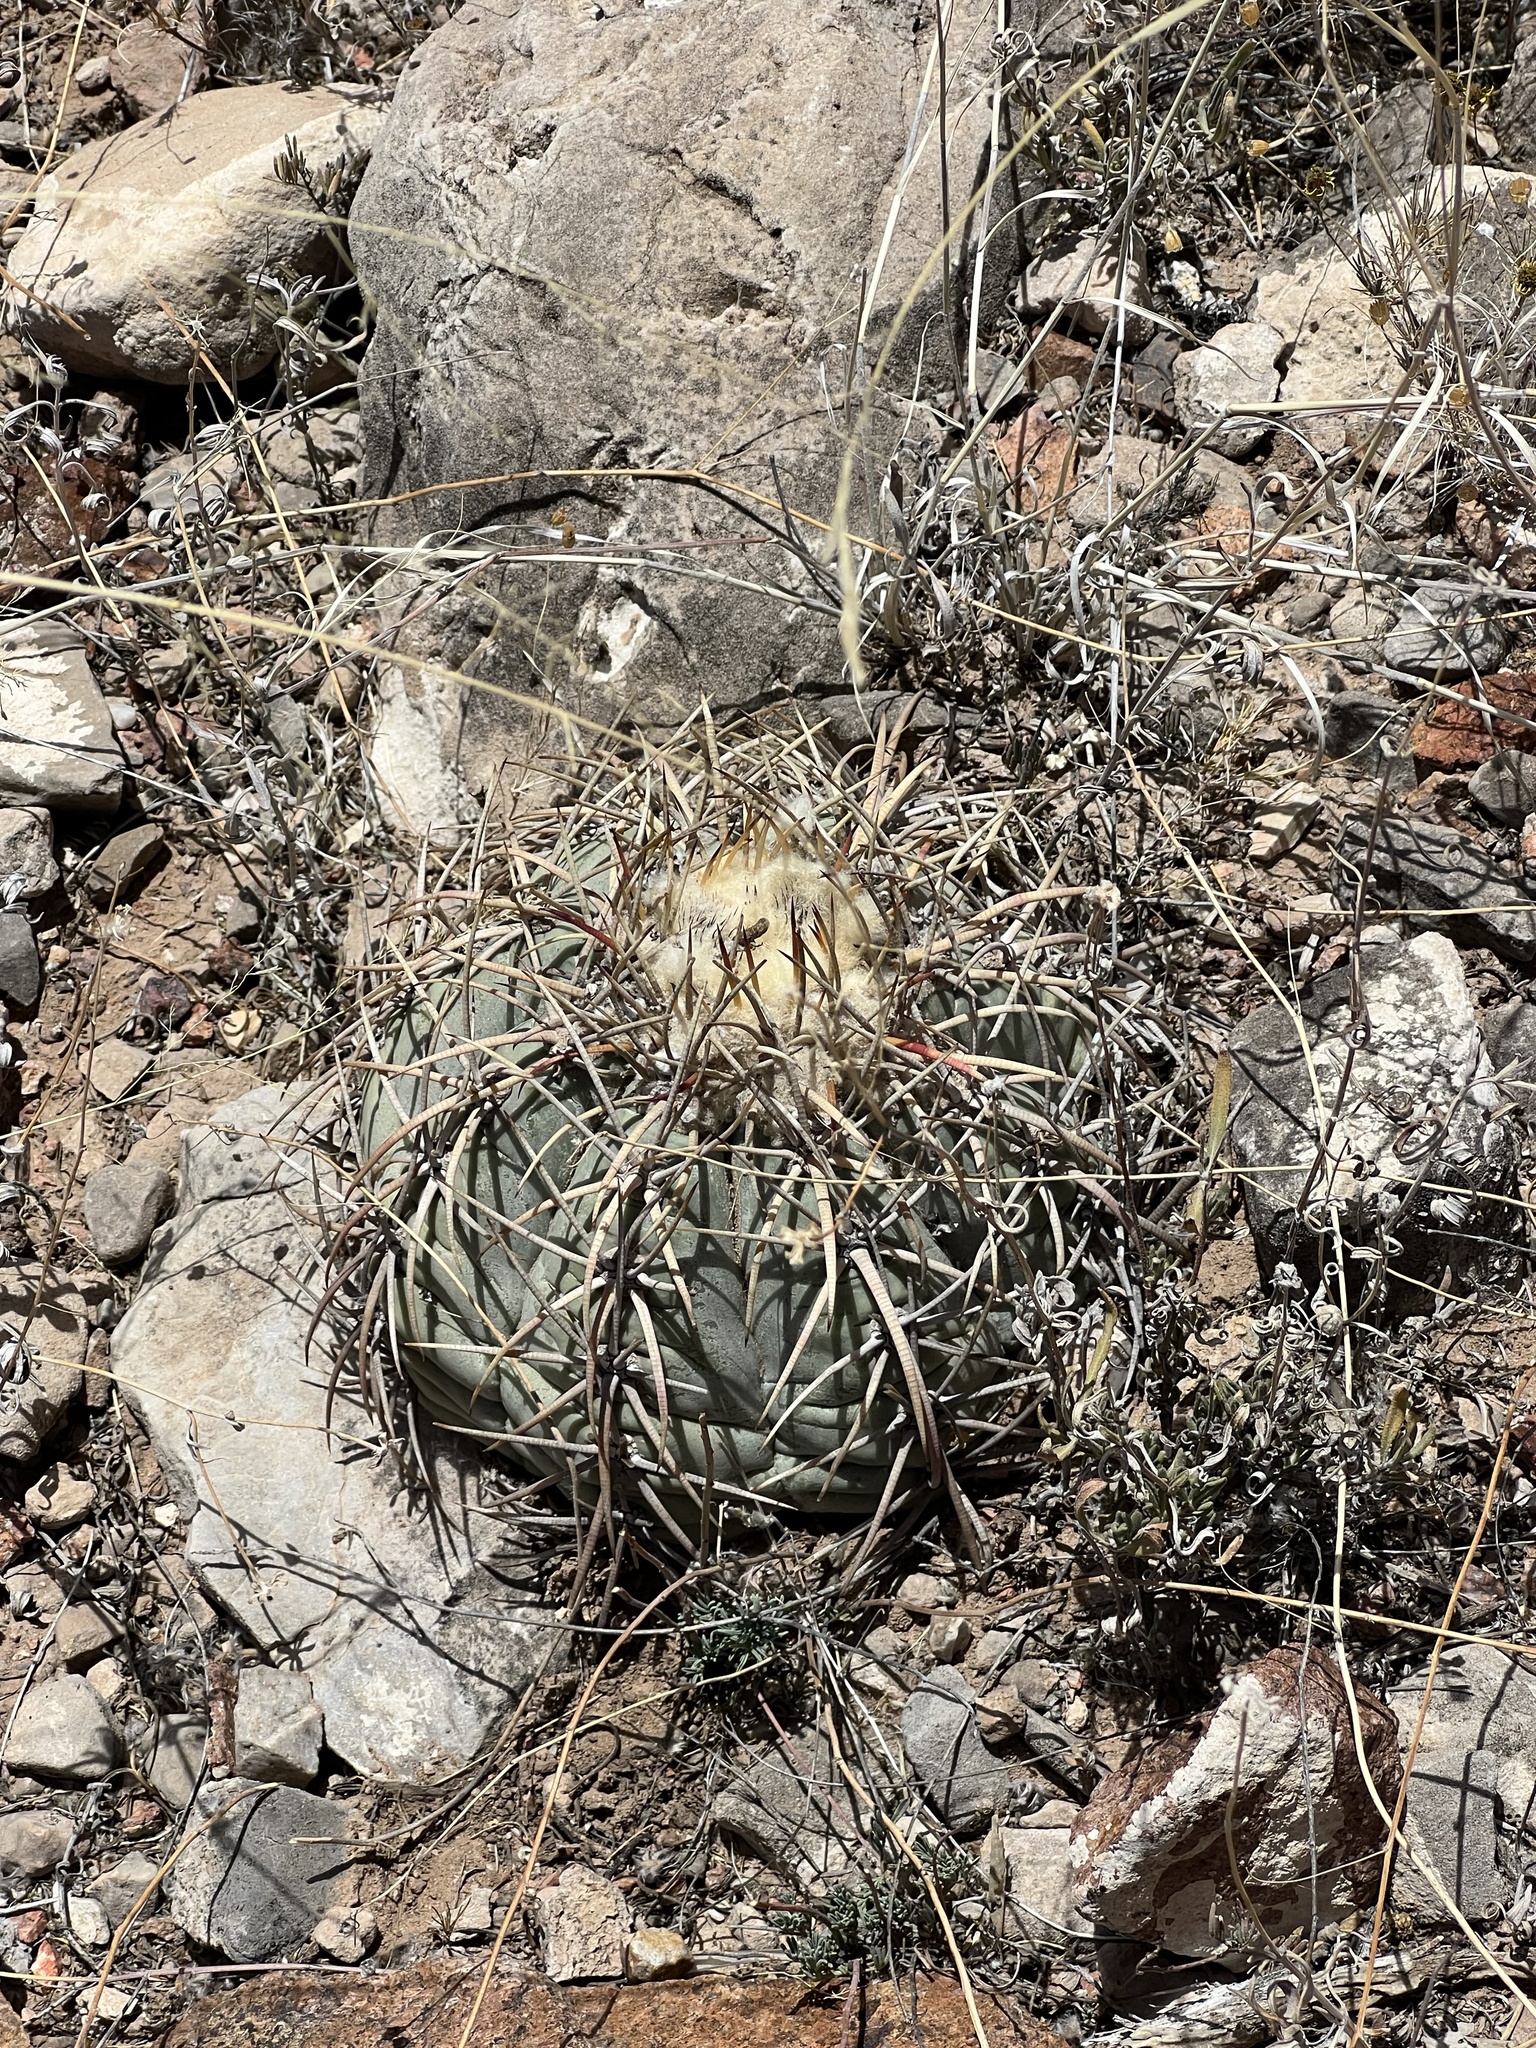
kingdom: Plantae
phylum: Tracheophyta
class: Magnoliopsida
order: Caryophyllales
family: Cactaceae
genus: Echinocactus
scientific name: Echinocactus horizonthalonius
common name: Devilshead
